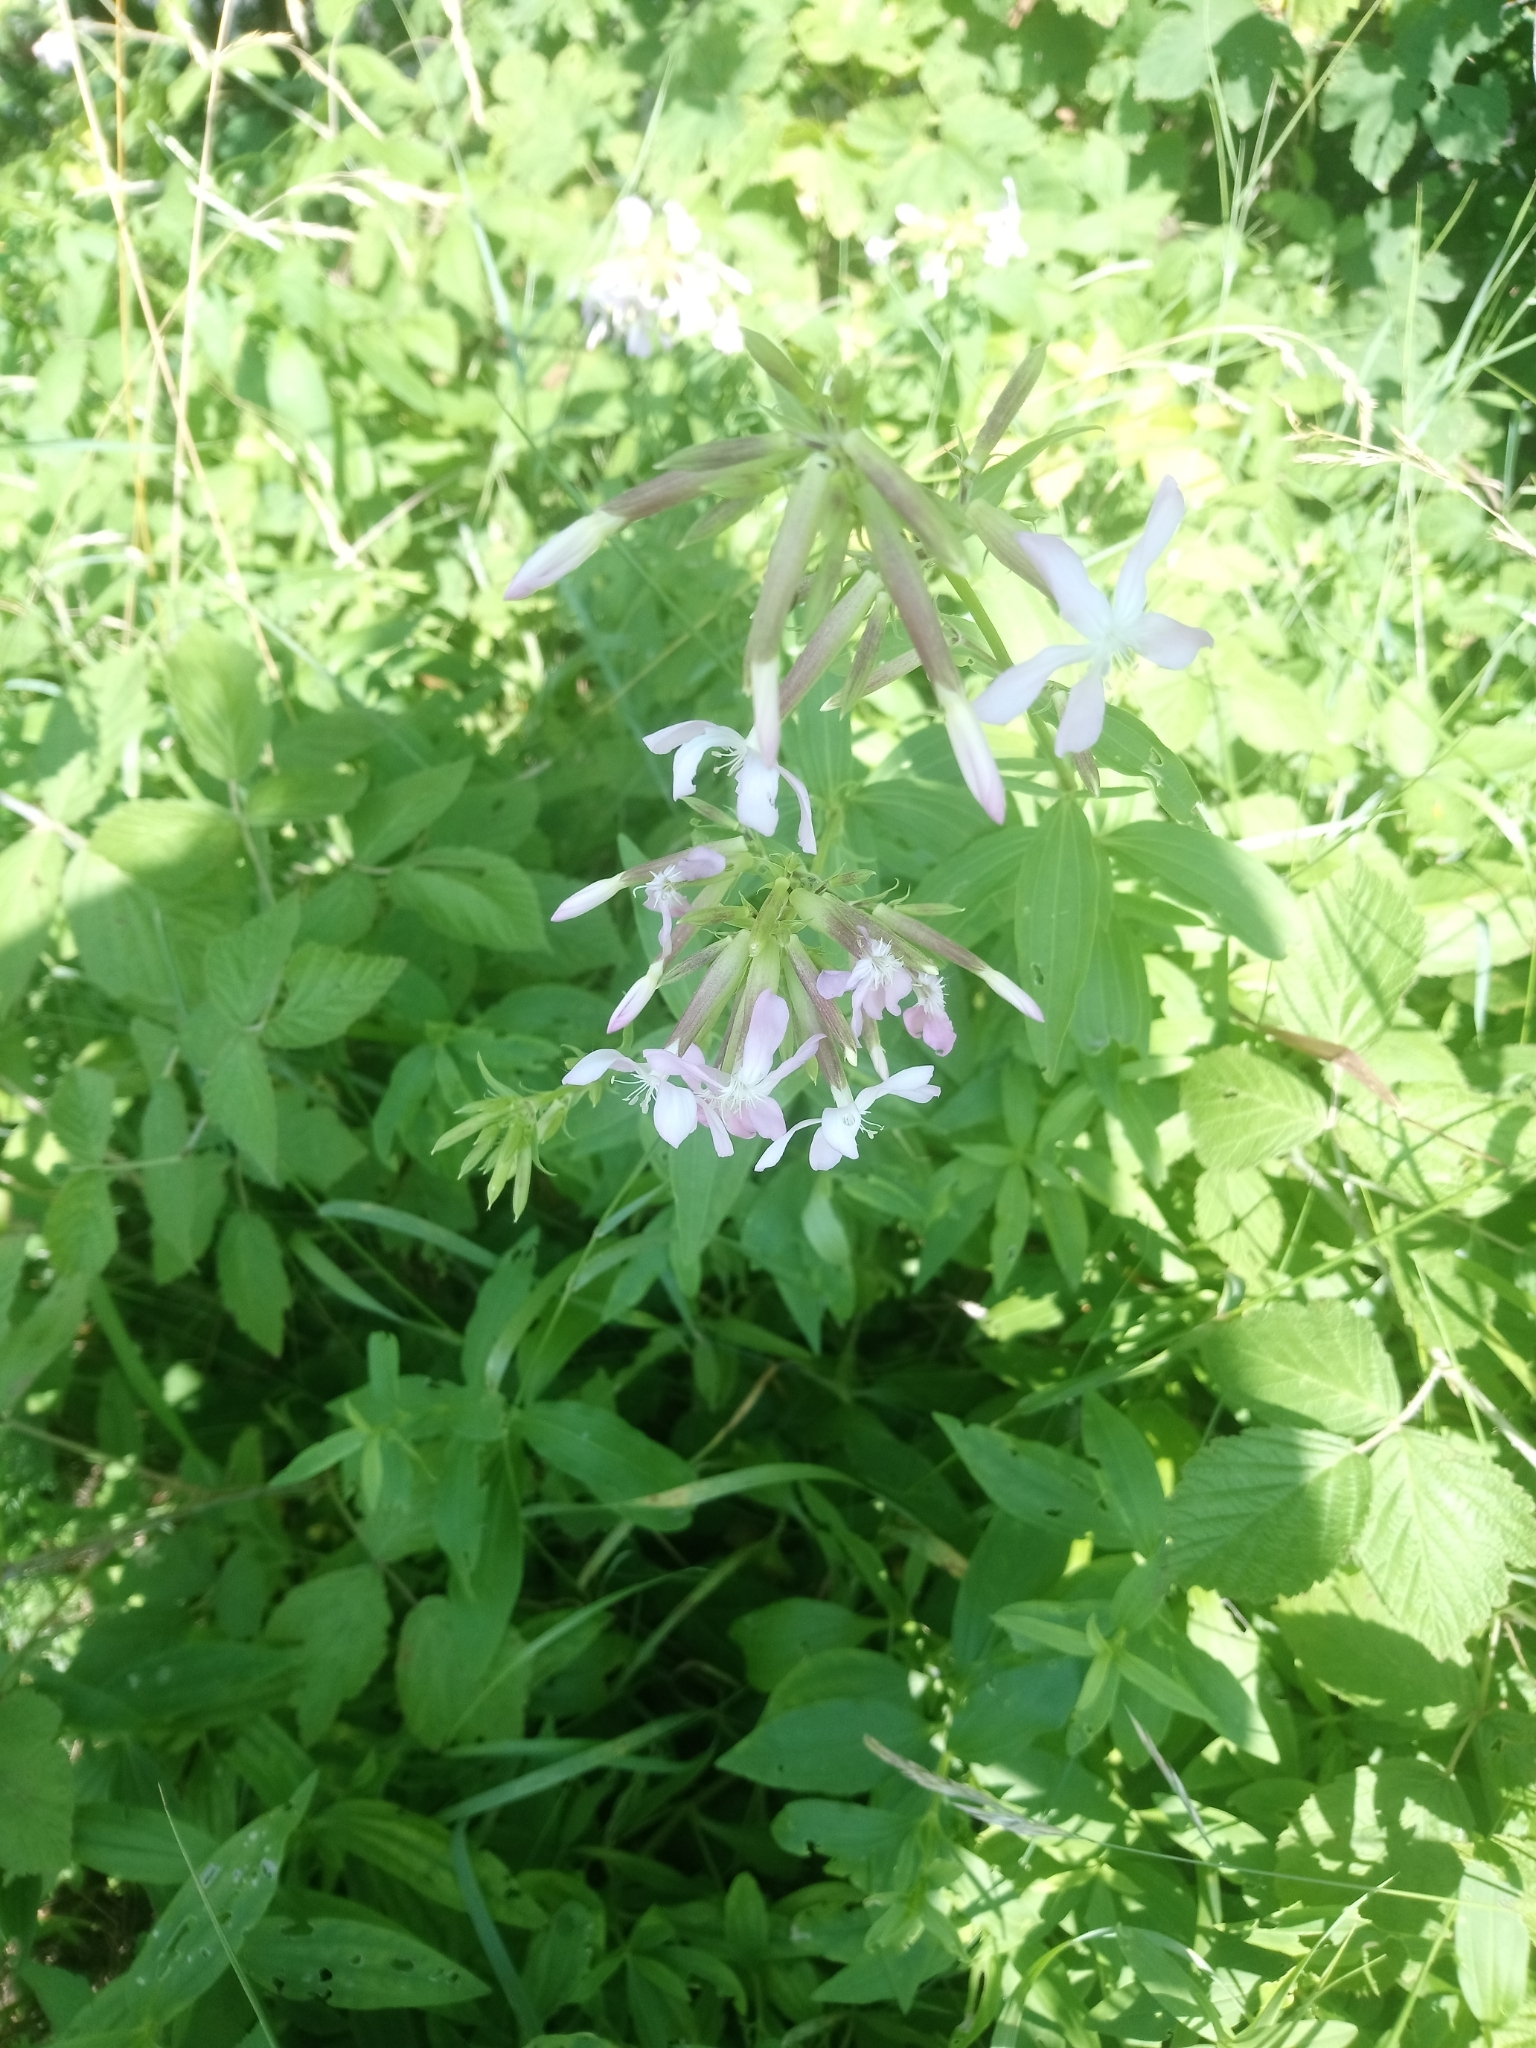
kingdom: Plantae
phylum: Tracheophyta
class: Magnoliopsida
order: Caryophyllales
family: Caryophyllaceae
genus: Saponaria
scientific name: Saponaria officinalis
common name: Soapwort
